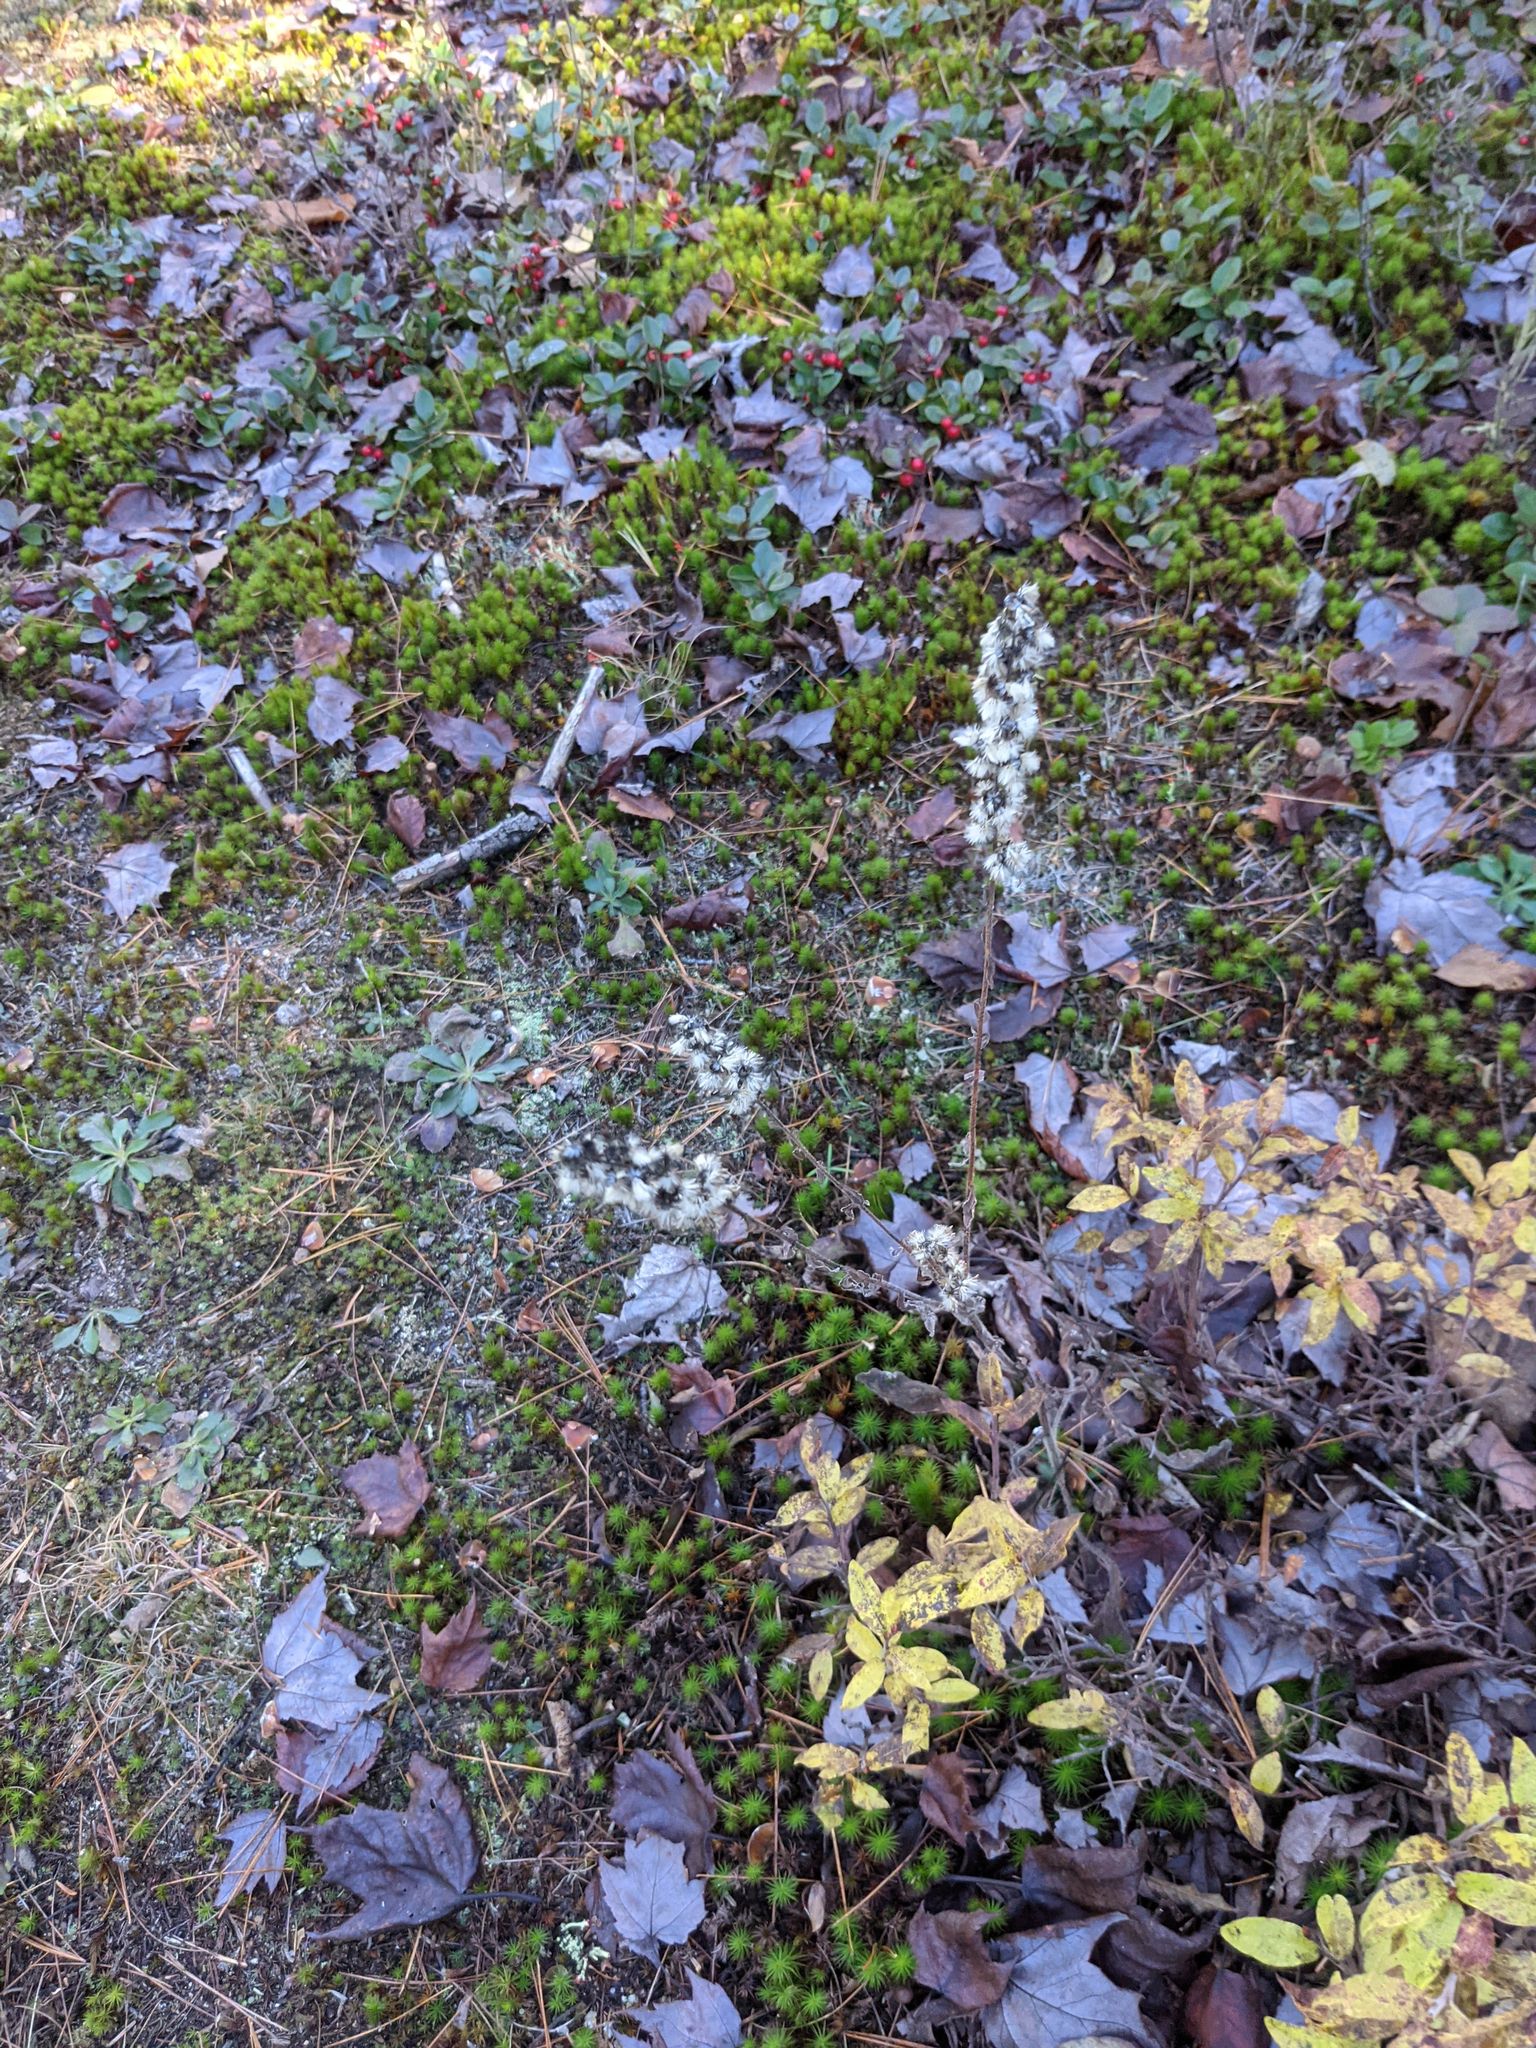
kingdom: Plantae
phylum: Tracheophyta
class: Magnoliopsida
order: Asterales
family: Asteraceae
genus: Solidago
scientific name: Solidago bicolor
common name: Silverrod
